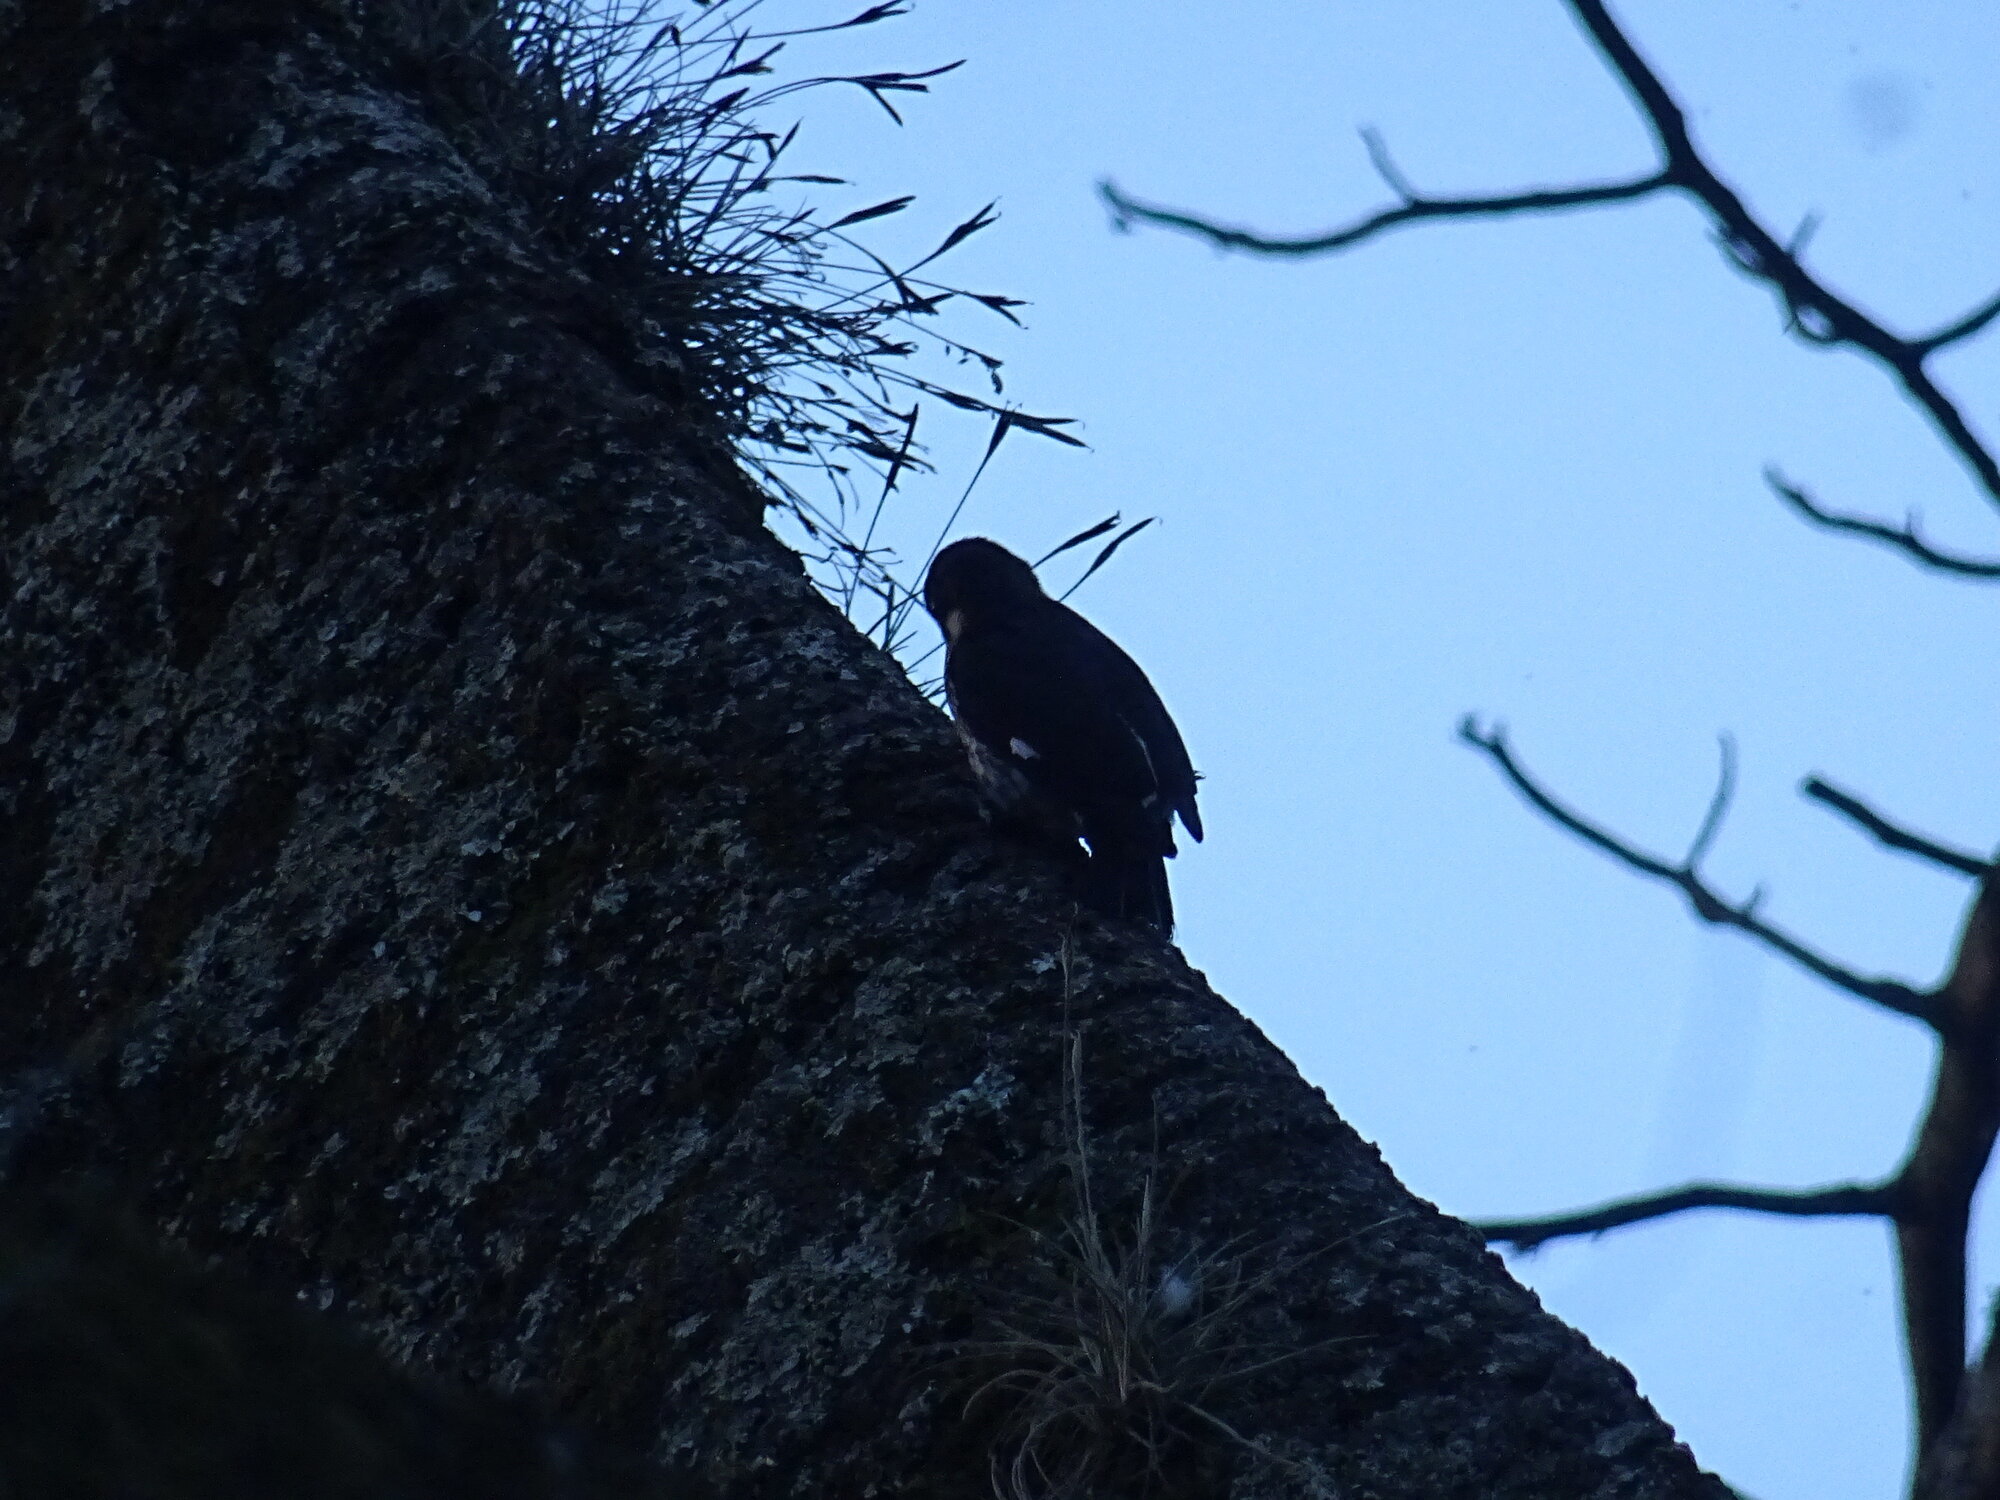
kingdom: Animalia
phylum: Chordata
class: Aves
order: Piciformes
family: Picidae
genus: Melanerpes
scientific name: Melanerpes formicivorus
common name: Acorn woodpecker
